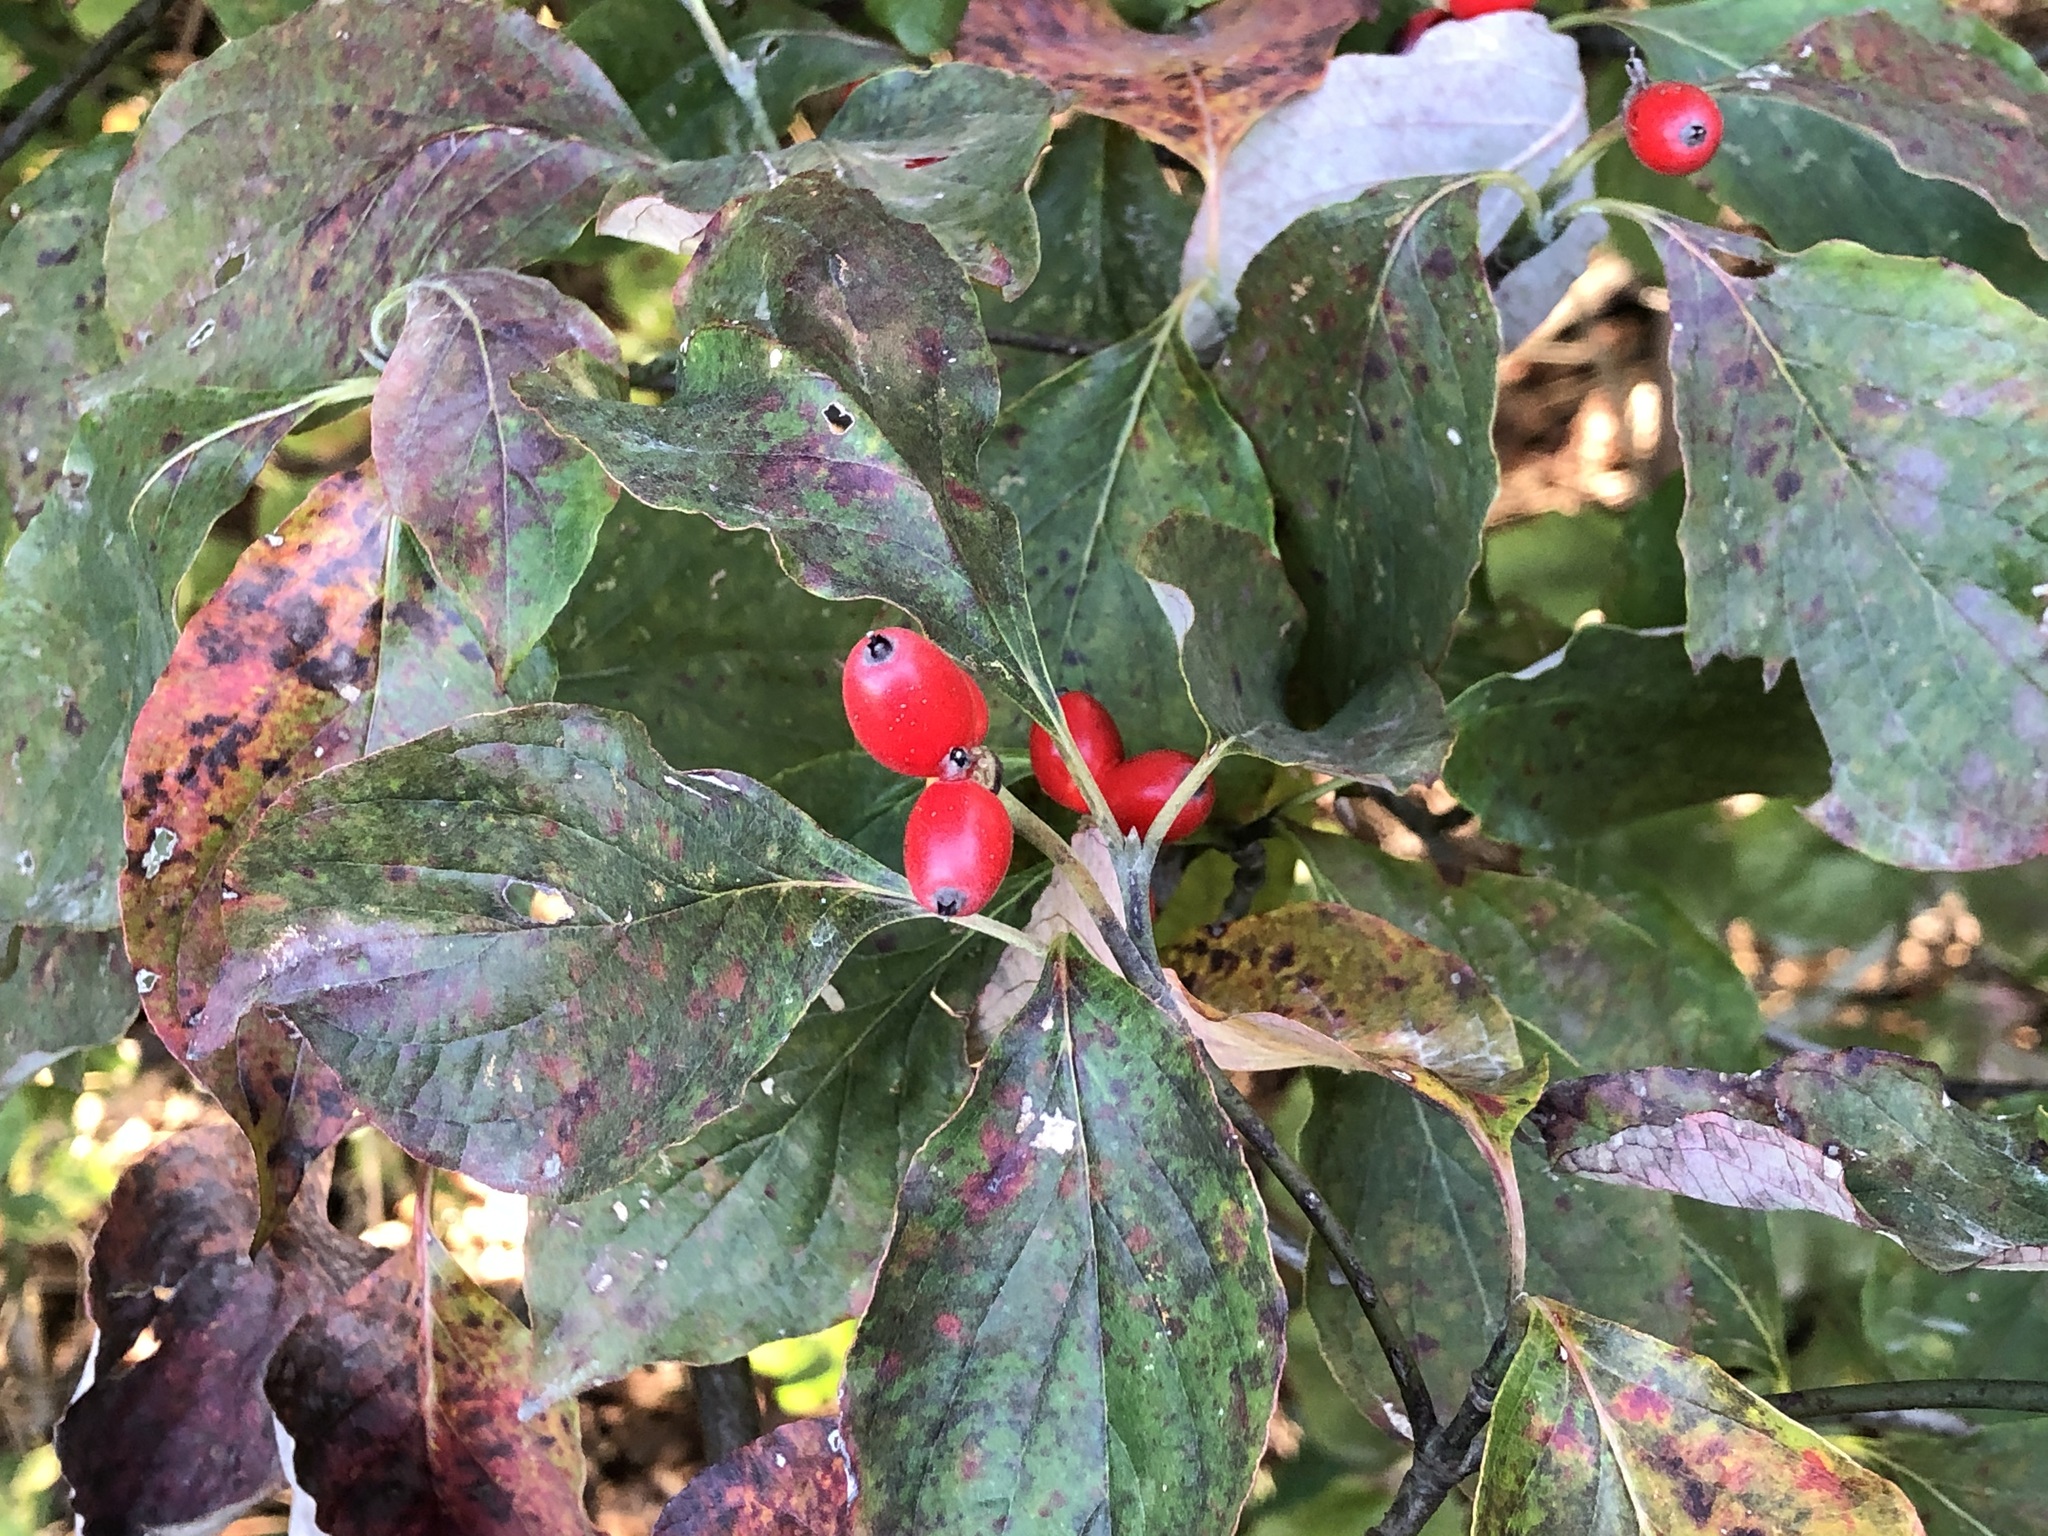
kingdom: Plantae
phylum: Tracheophyta
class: Magnoliopsida
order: Cornales
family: Cornaceae
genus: Cornus
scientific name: Cornus florida
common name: Flowering dogwood
